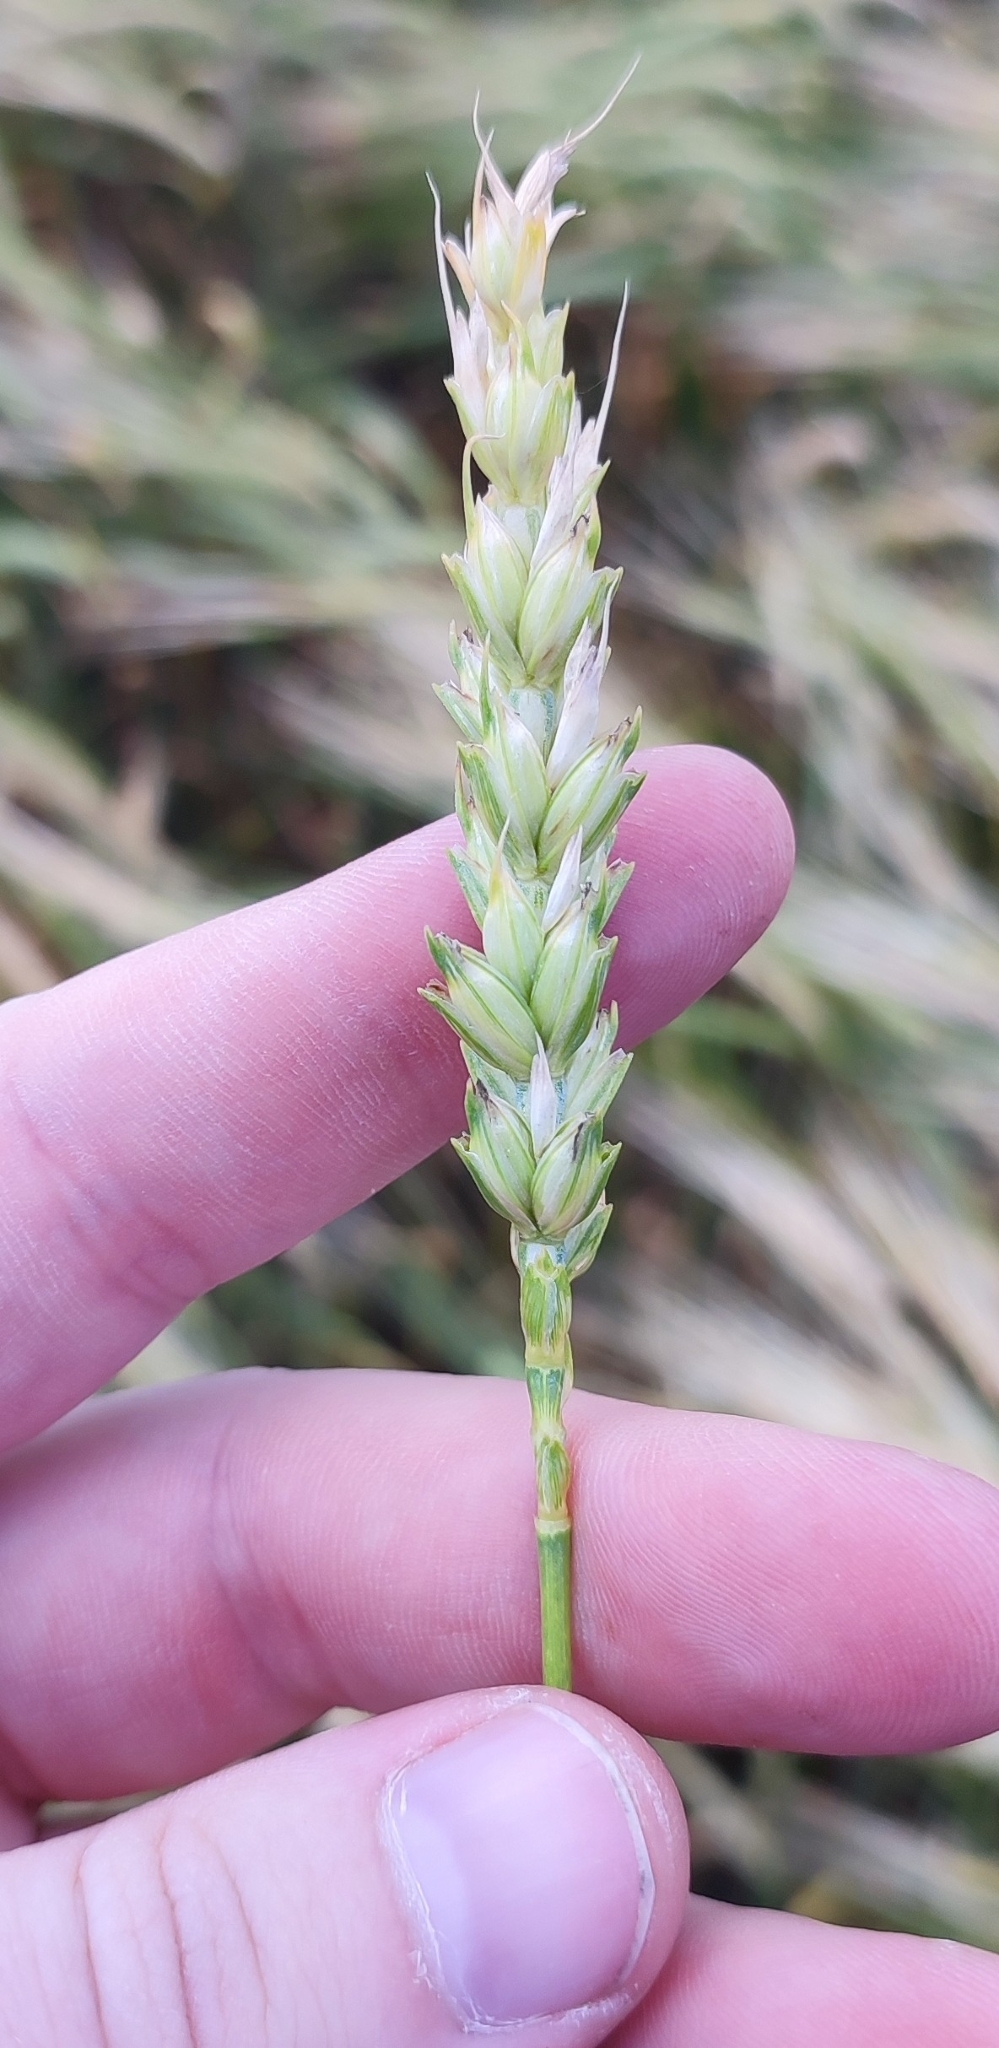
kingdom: Plantae
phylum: Tracheophyta
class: Liliopsida
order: Poales
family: Poaceae
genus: Triticum
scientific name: Triticum aestivum
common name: Common wheat
